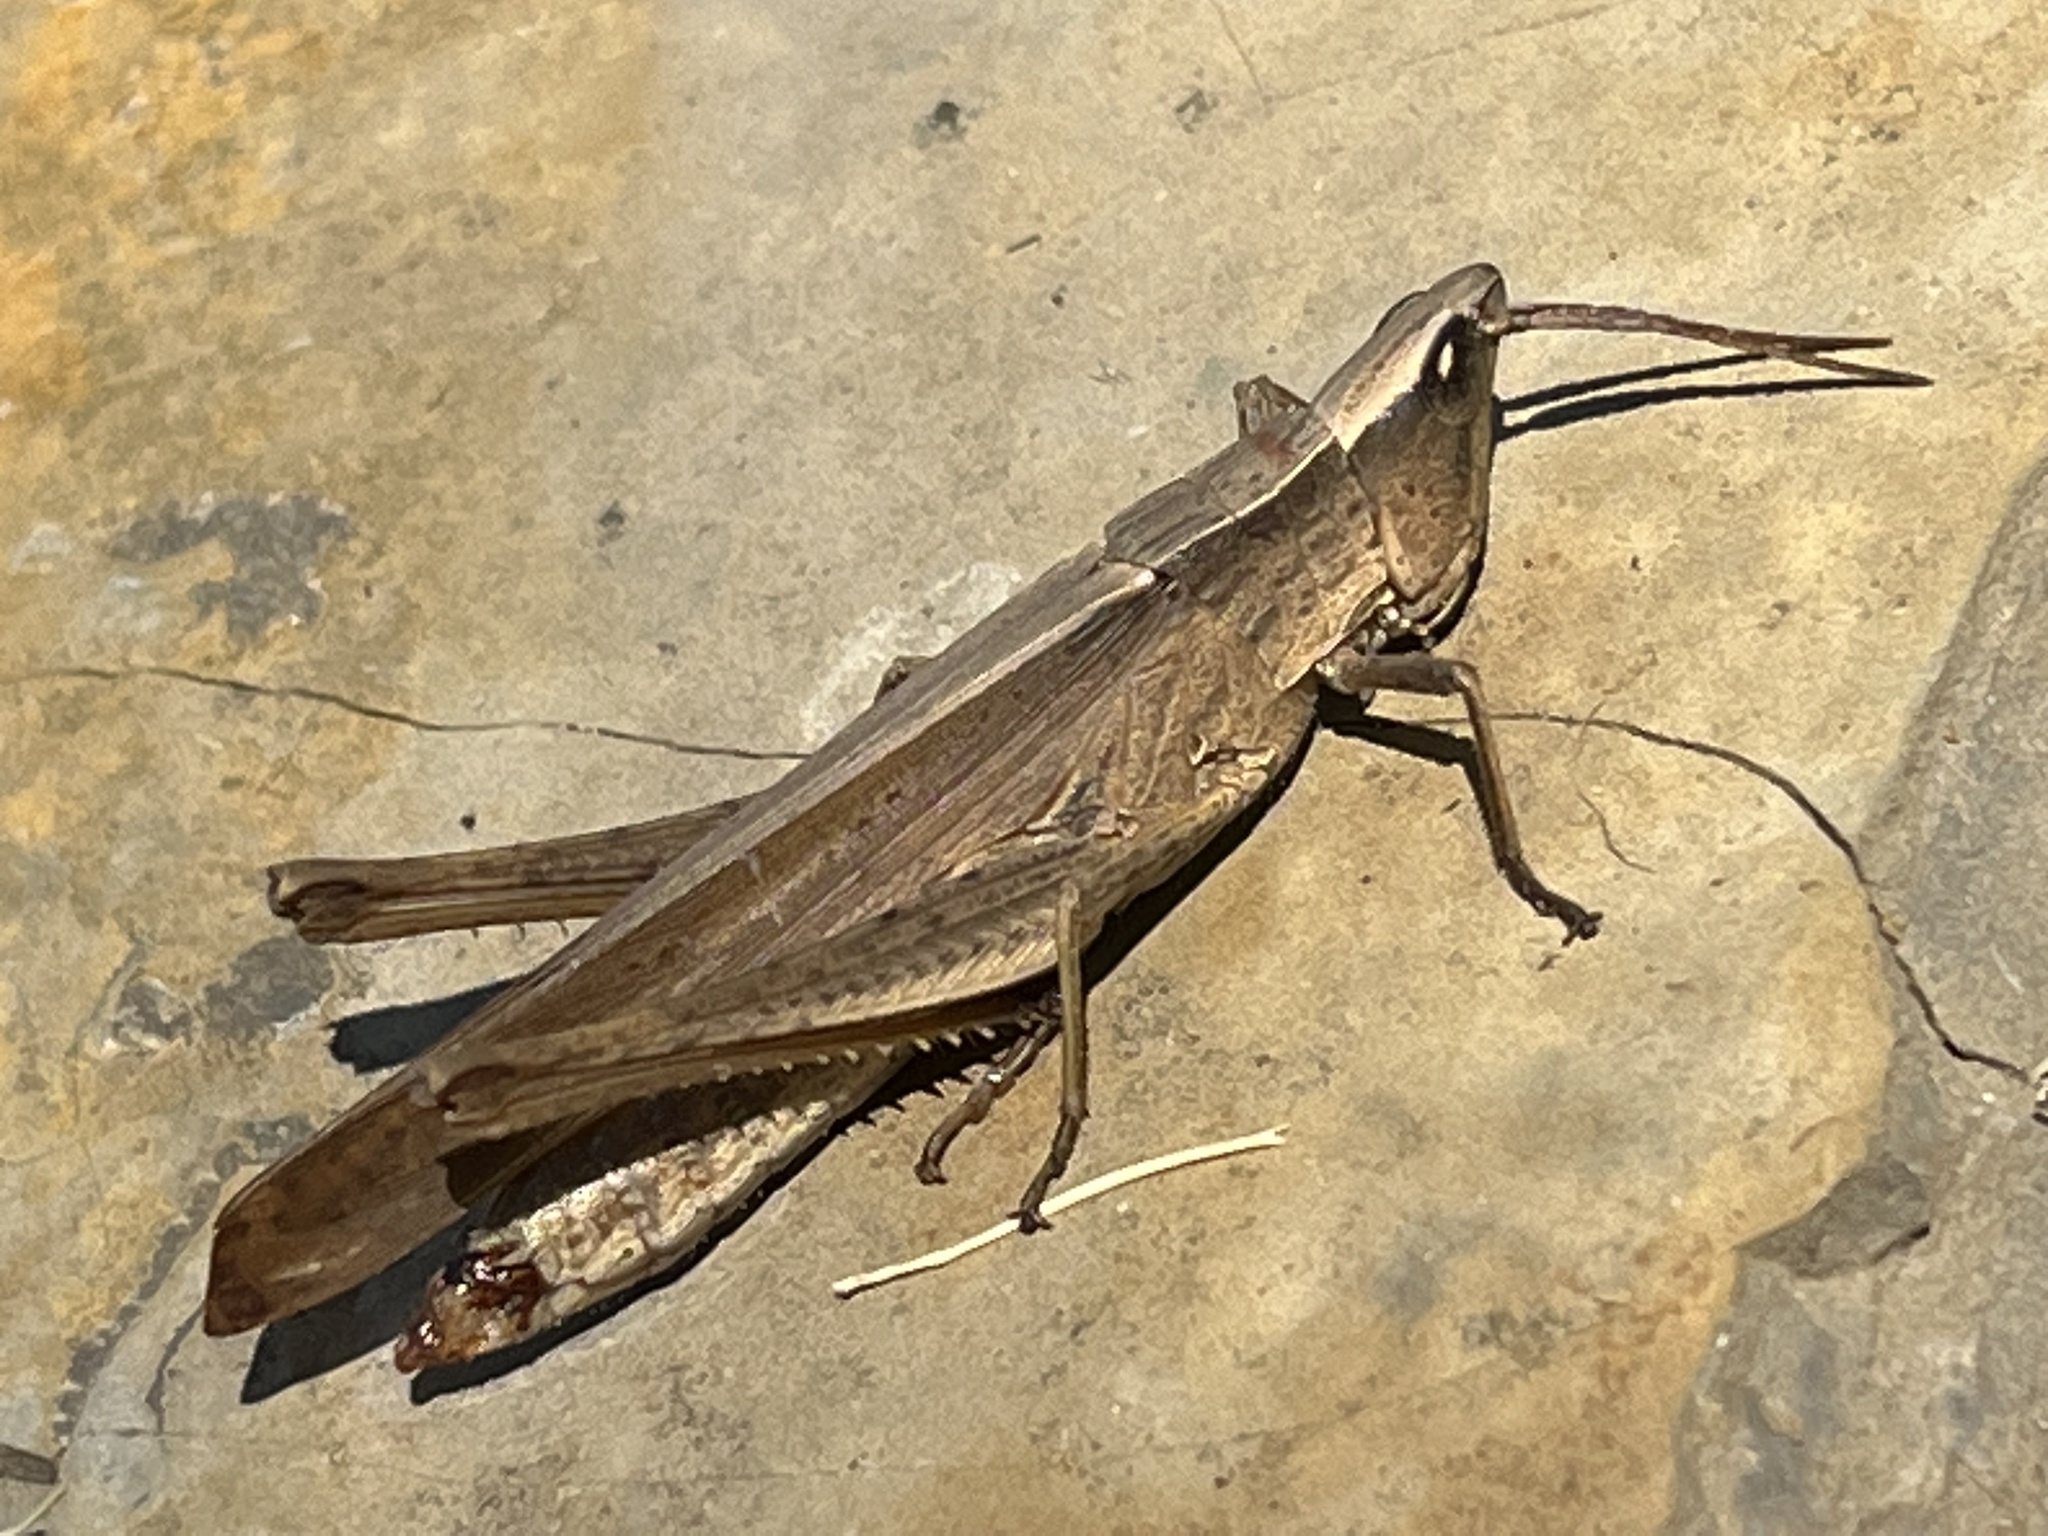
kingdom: Animalia
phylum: Arthropoda
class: Insecta
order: Orthoptera
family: Acrididae
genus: Metaleptea
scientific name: Metaleptea brevicornis
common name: Clipped-wing grasshopper
